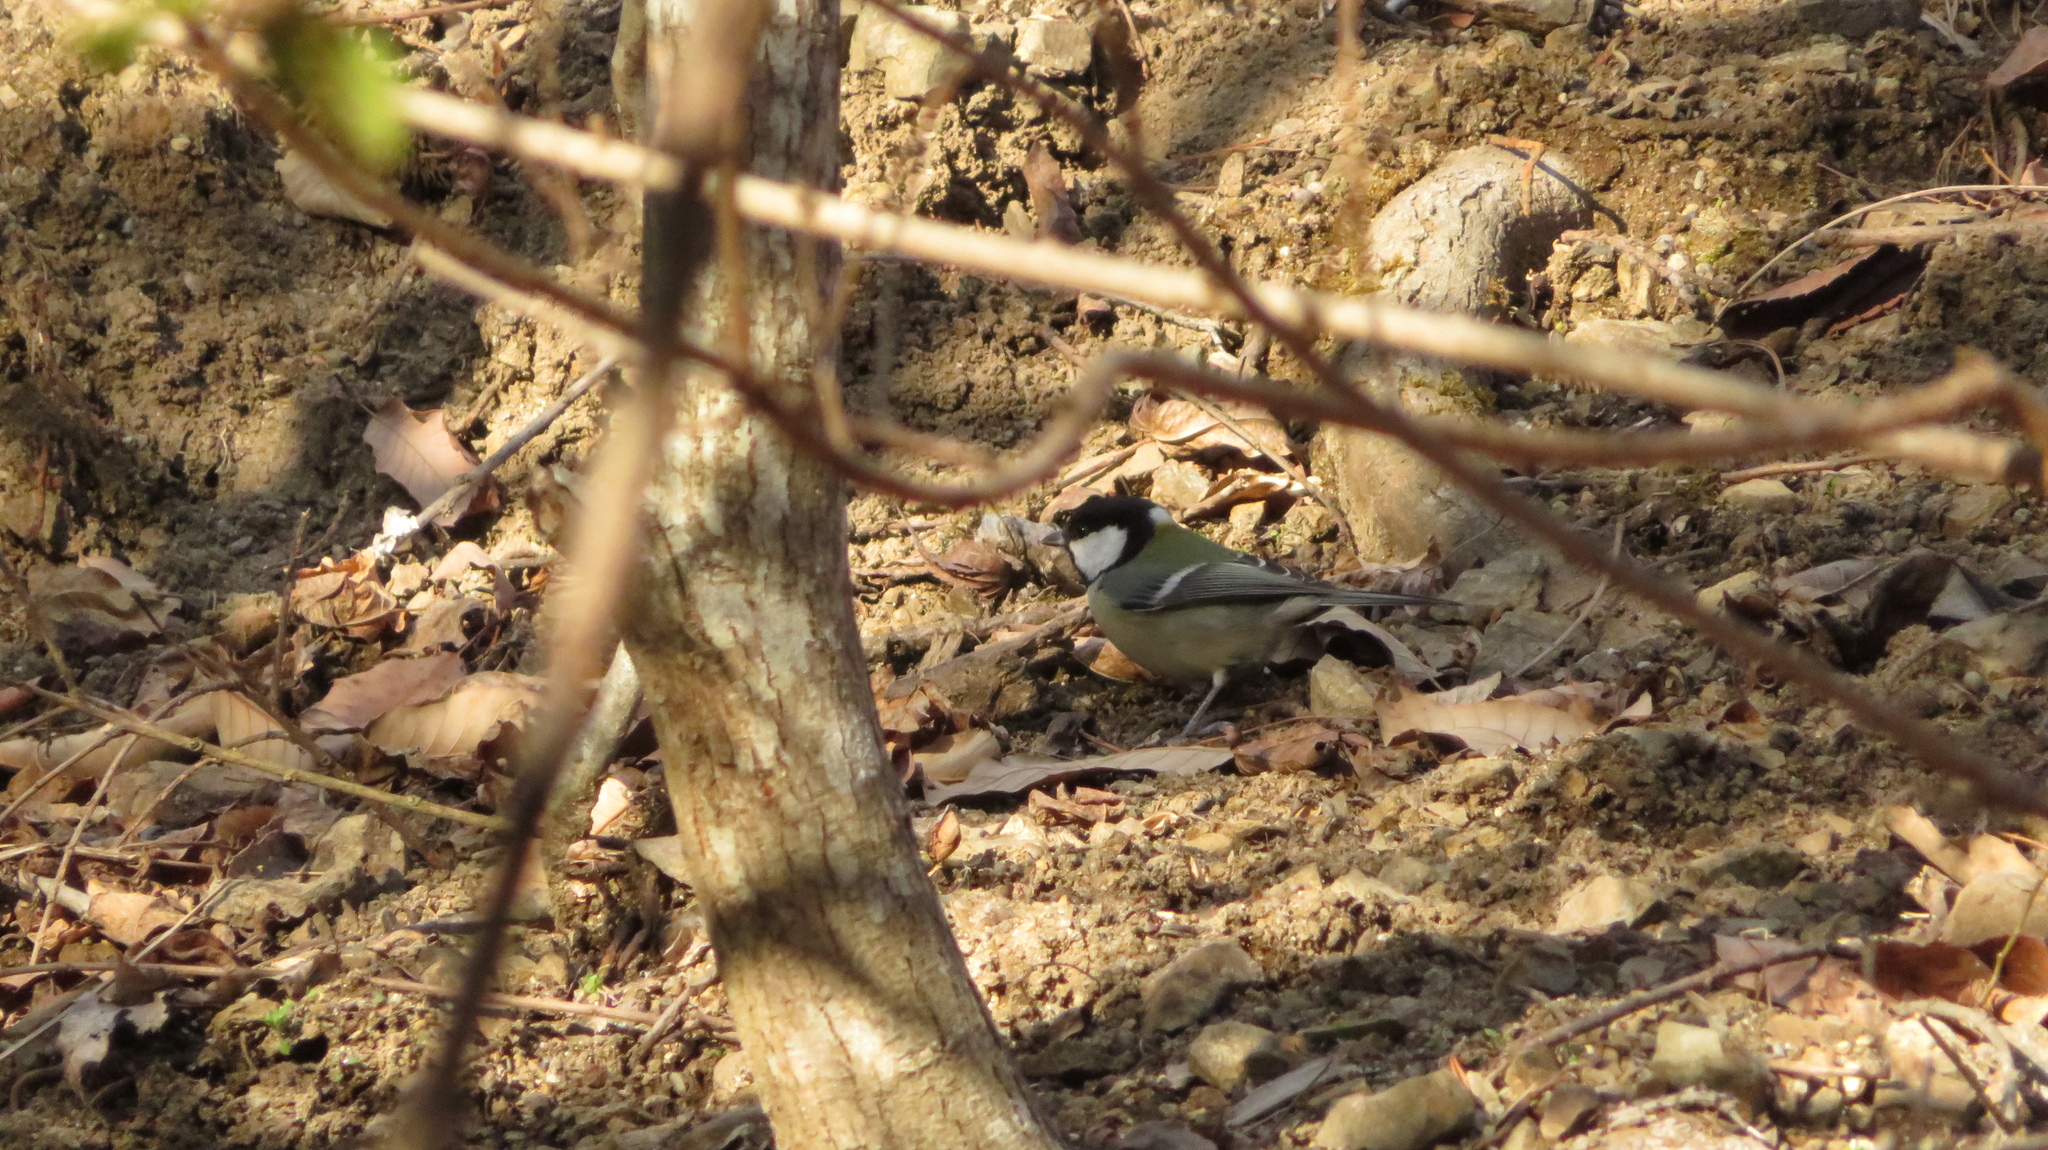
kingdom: Animalia
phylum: Chordata
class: Aves
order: Passeriformes
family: Paridae
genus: Parus
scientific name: Parus minor
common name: Japanese tit
